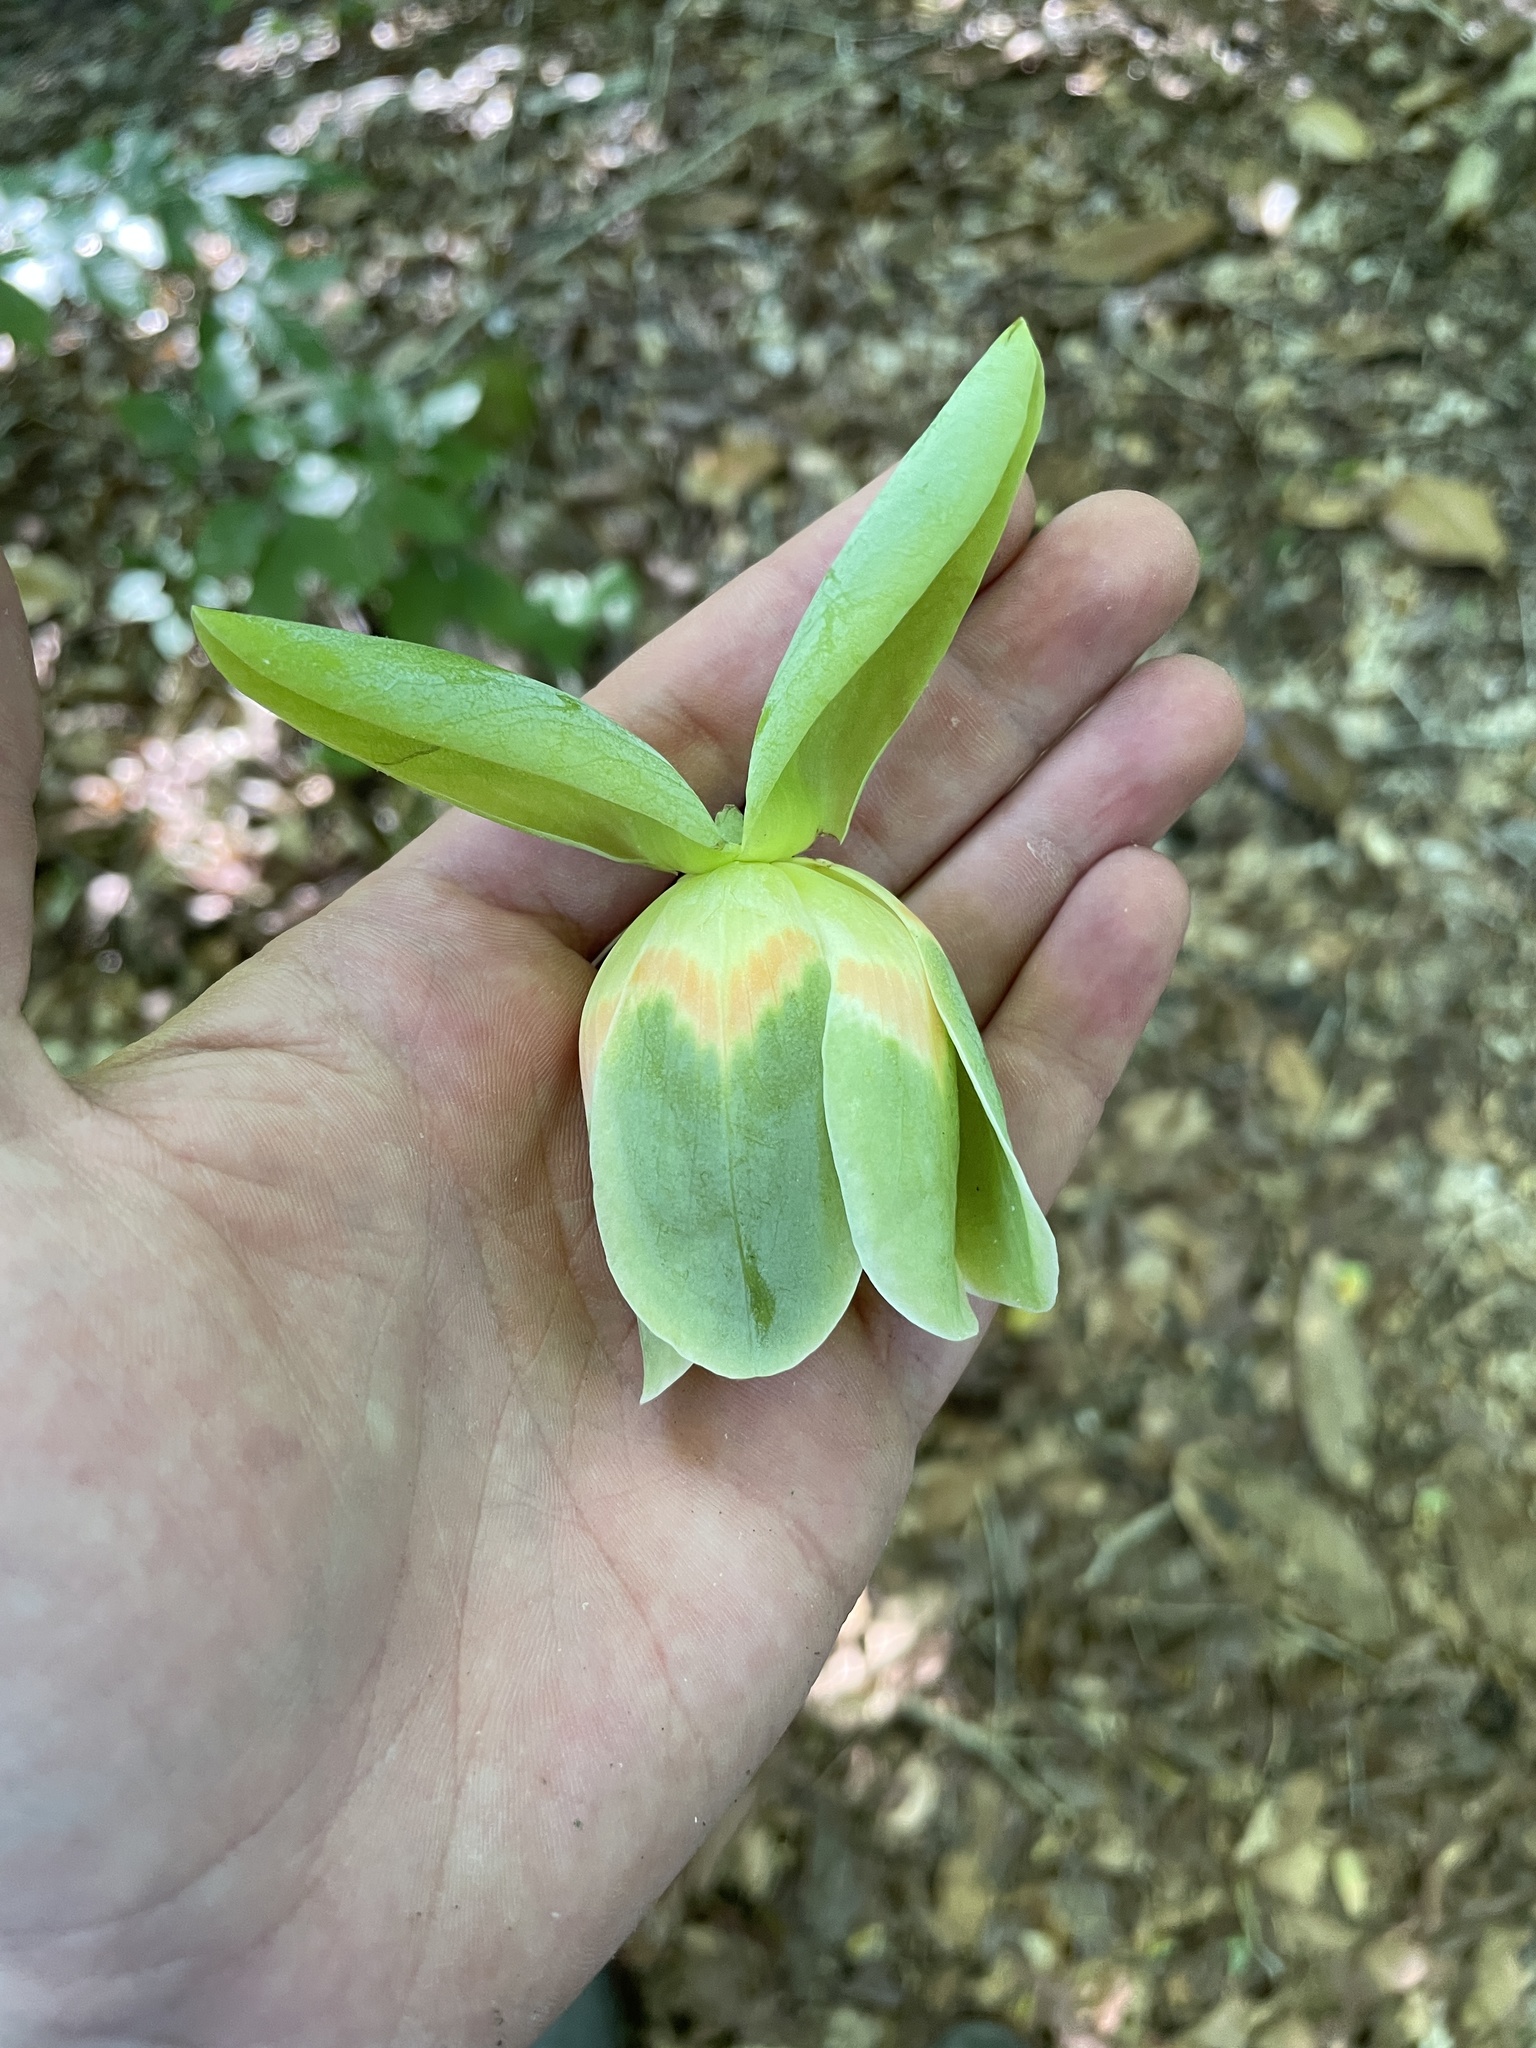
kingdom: Plantae
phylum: Tracheophyta
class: Magnoliopsida
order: Magnoliales
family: Magnoliaceae
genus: Liriodendron
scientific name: Liriodendron tulipifera
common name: Tulip tree
